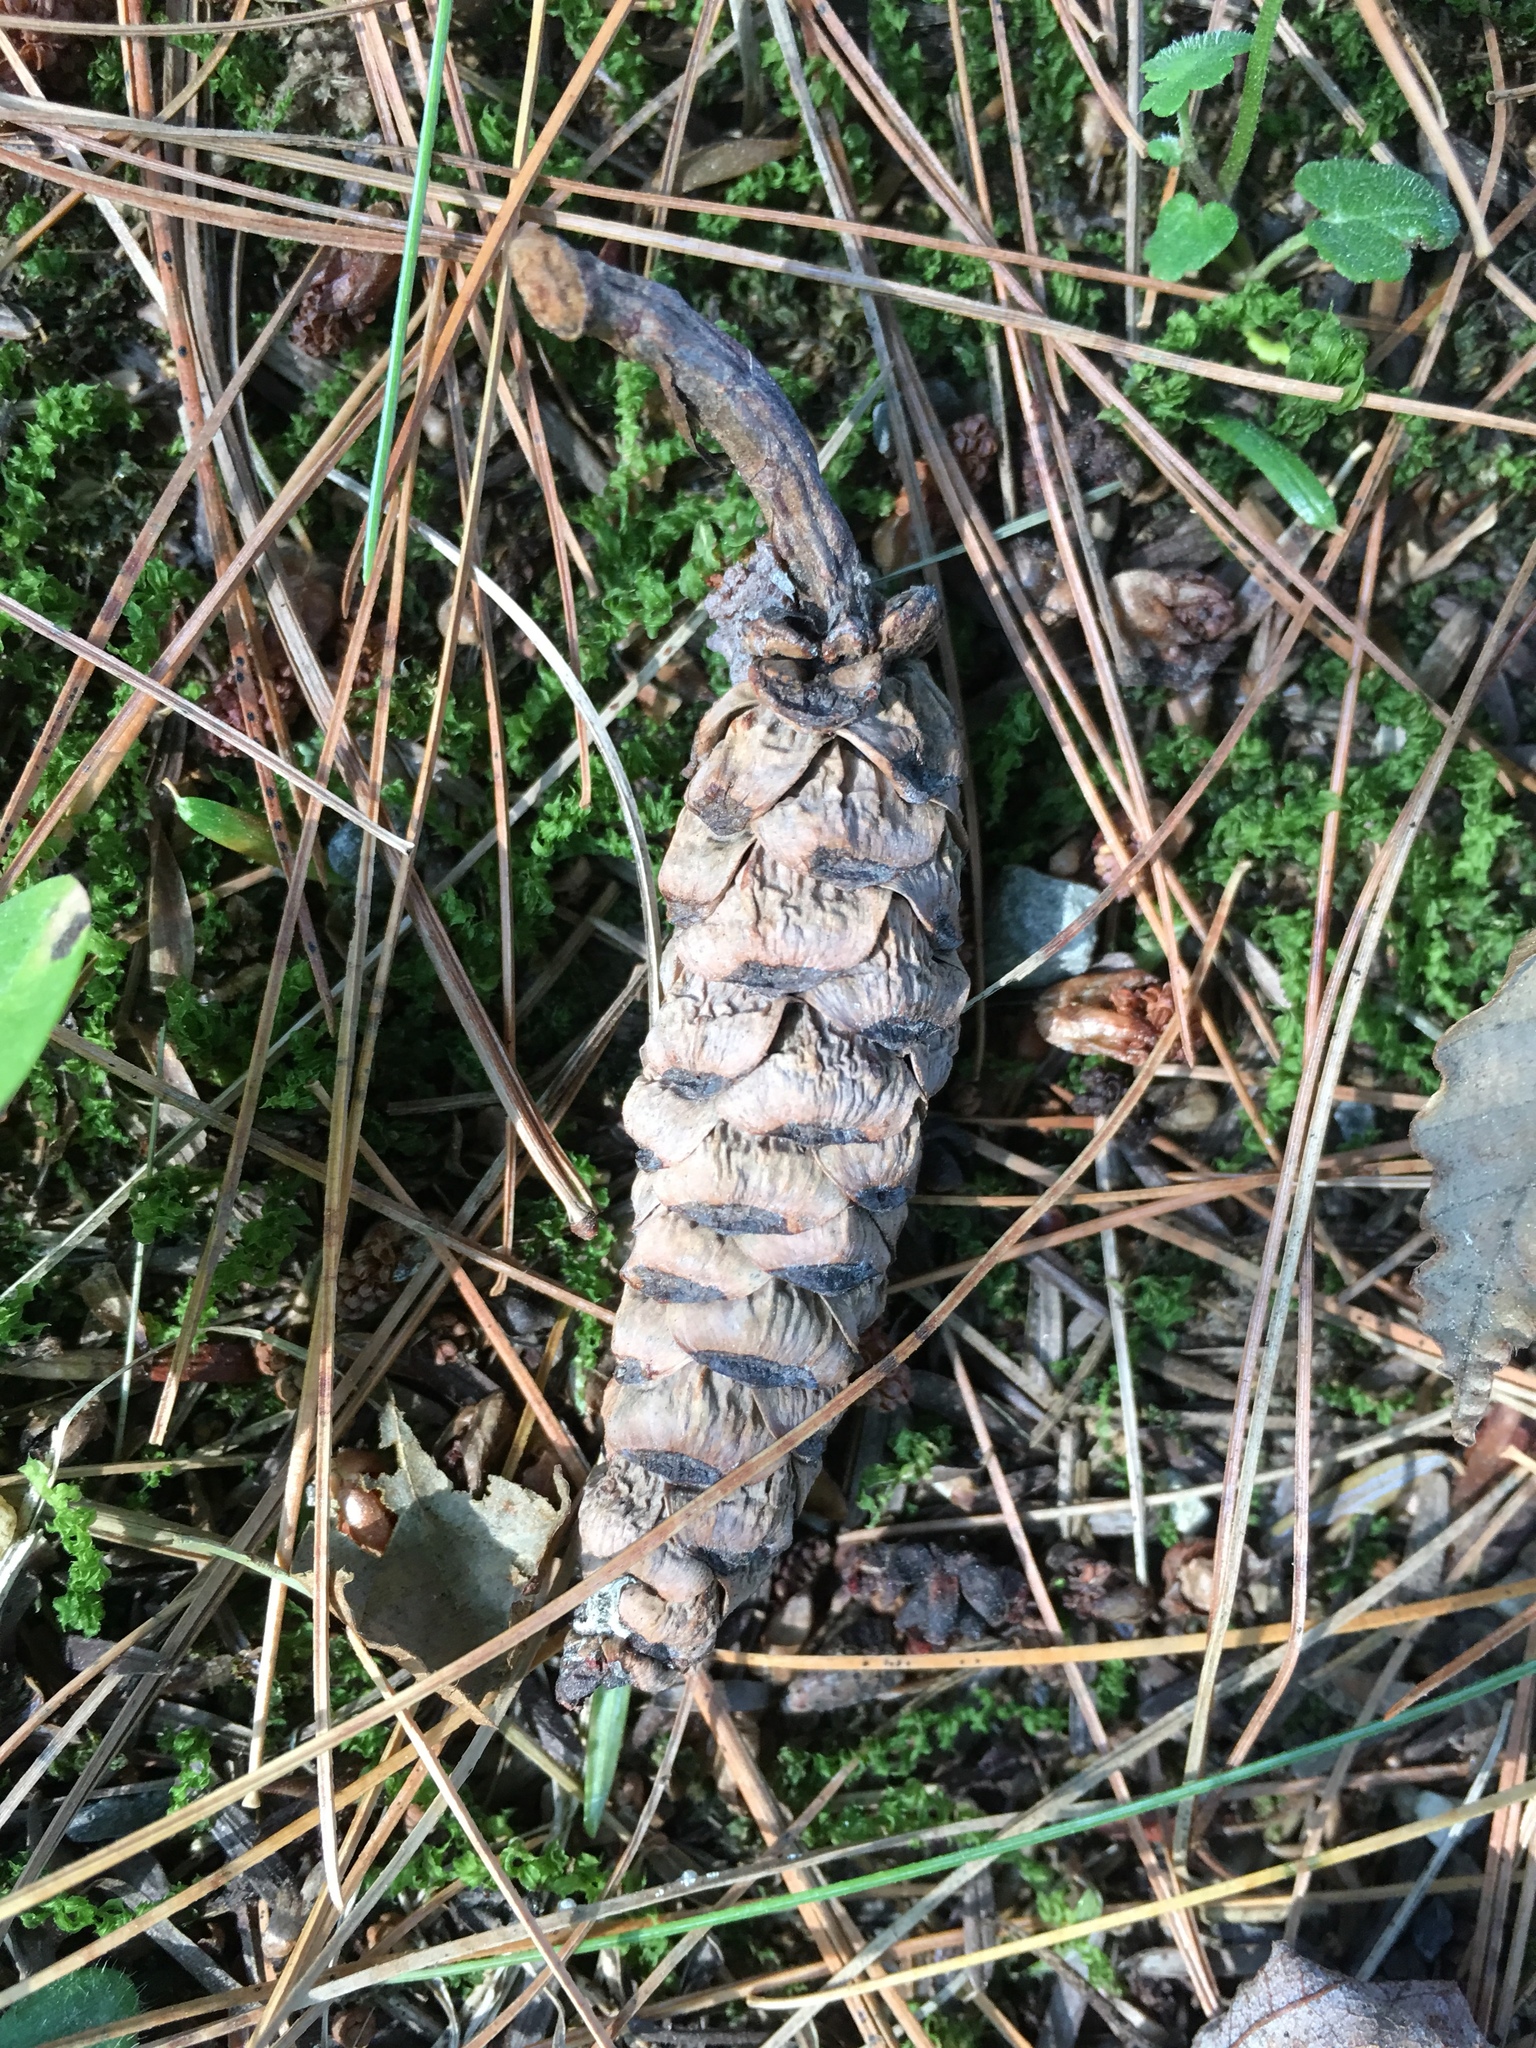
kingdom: Plantae
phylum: Tracheophyta
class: Pinopsida
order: Pinales
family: Pinaceae
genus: Tsuga
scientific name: Tsuga canadensis
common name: Eastern hemlock
